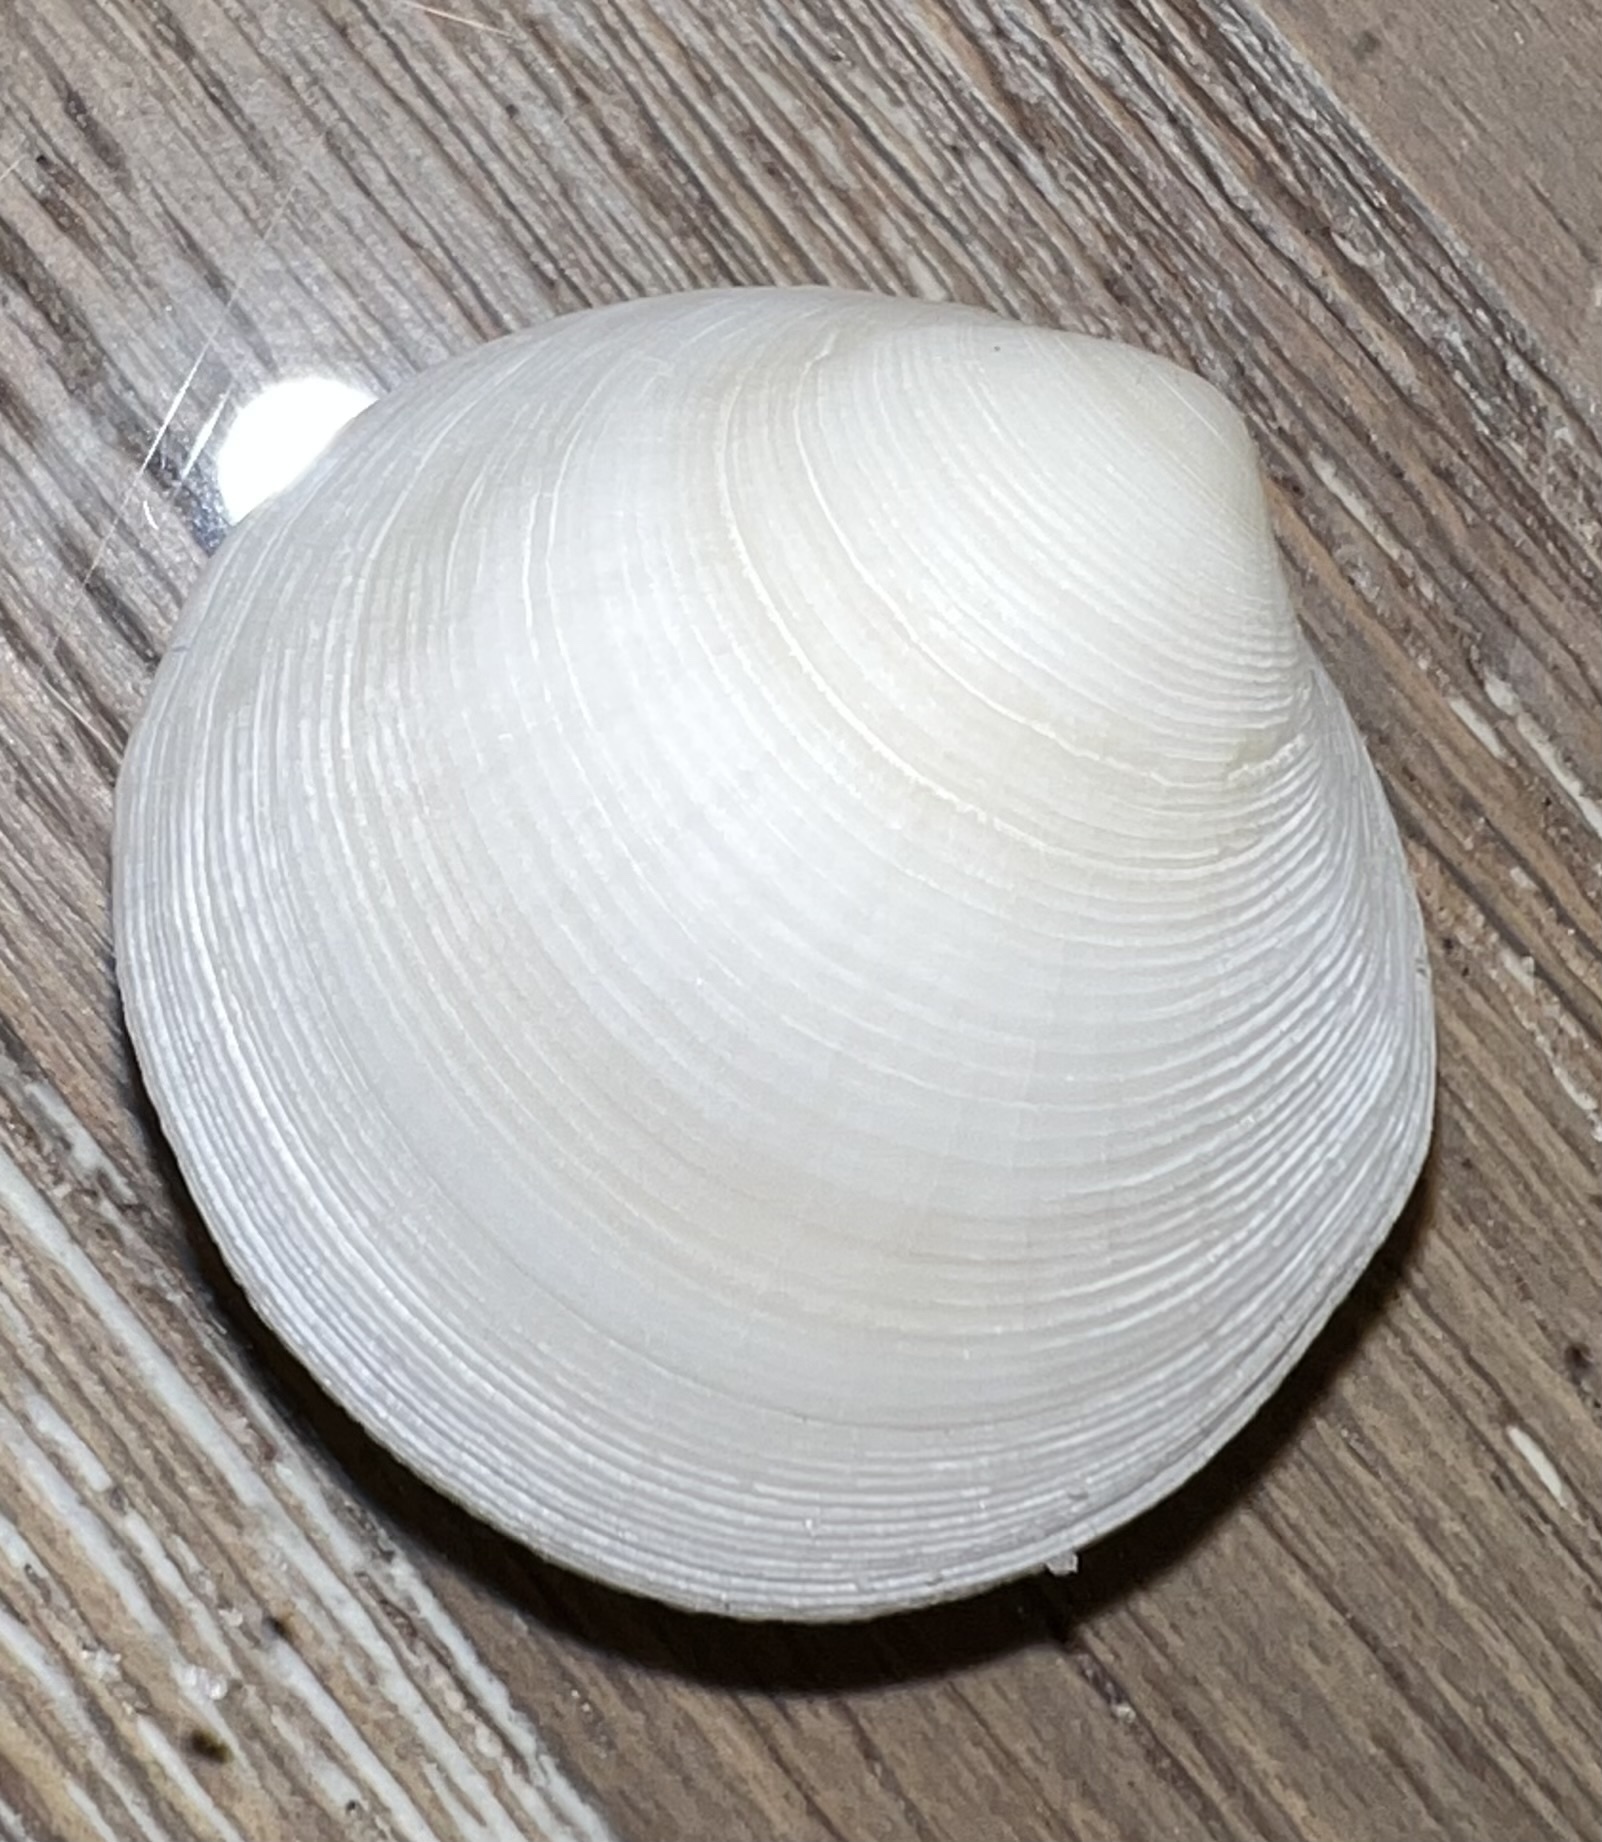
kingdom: Animalia
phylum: Mollusca
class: Bivalvia
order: Lucinida
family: Lucinidae
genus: Callucina
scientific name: Callucina keenae
